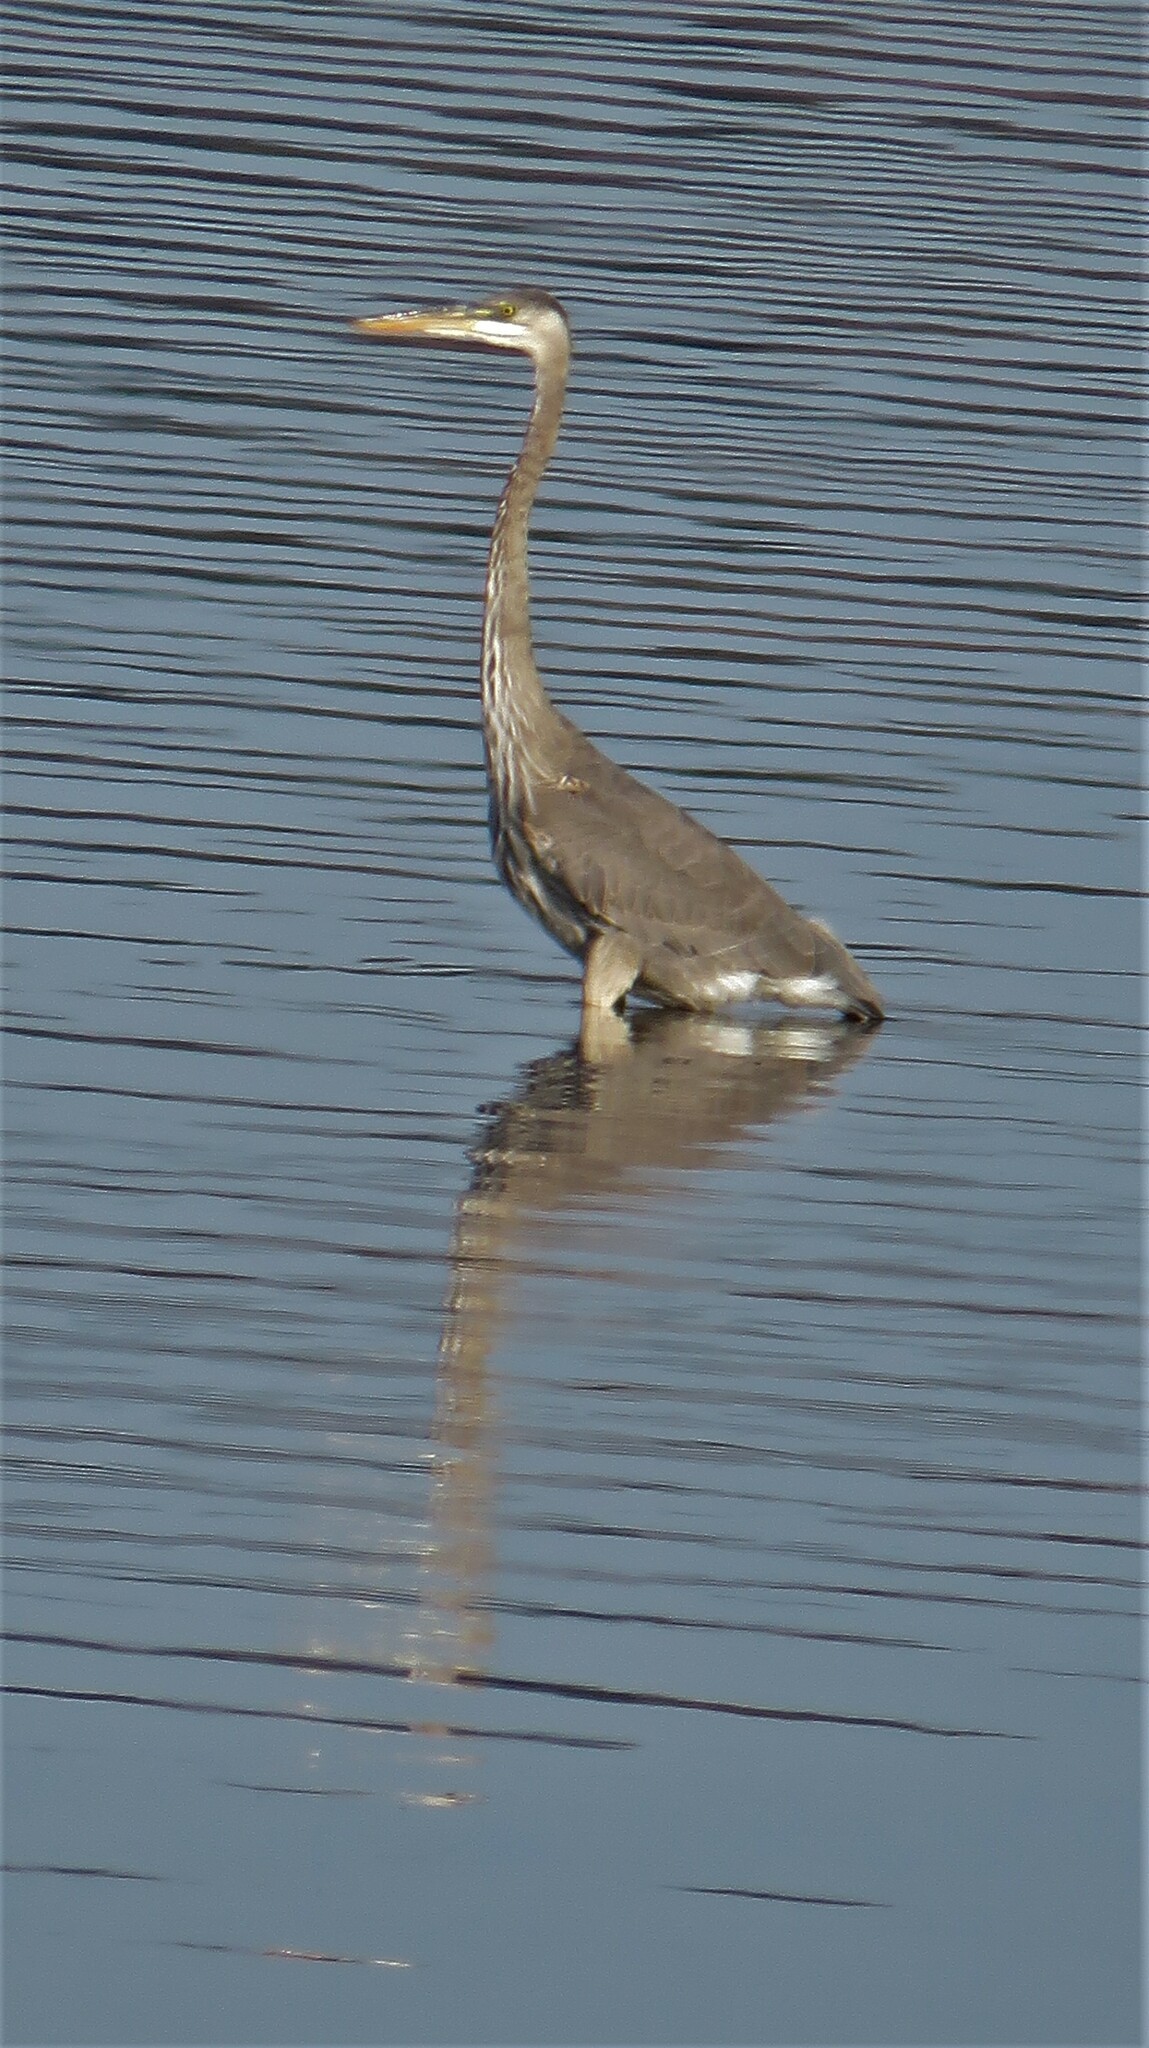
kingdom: Animalia
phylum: Chordata
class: Aves
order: Pelecaniformes
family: Ardeidae
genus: Ardea
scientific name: Ardea herodias
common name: Great blue heron
